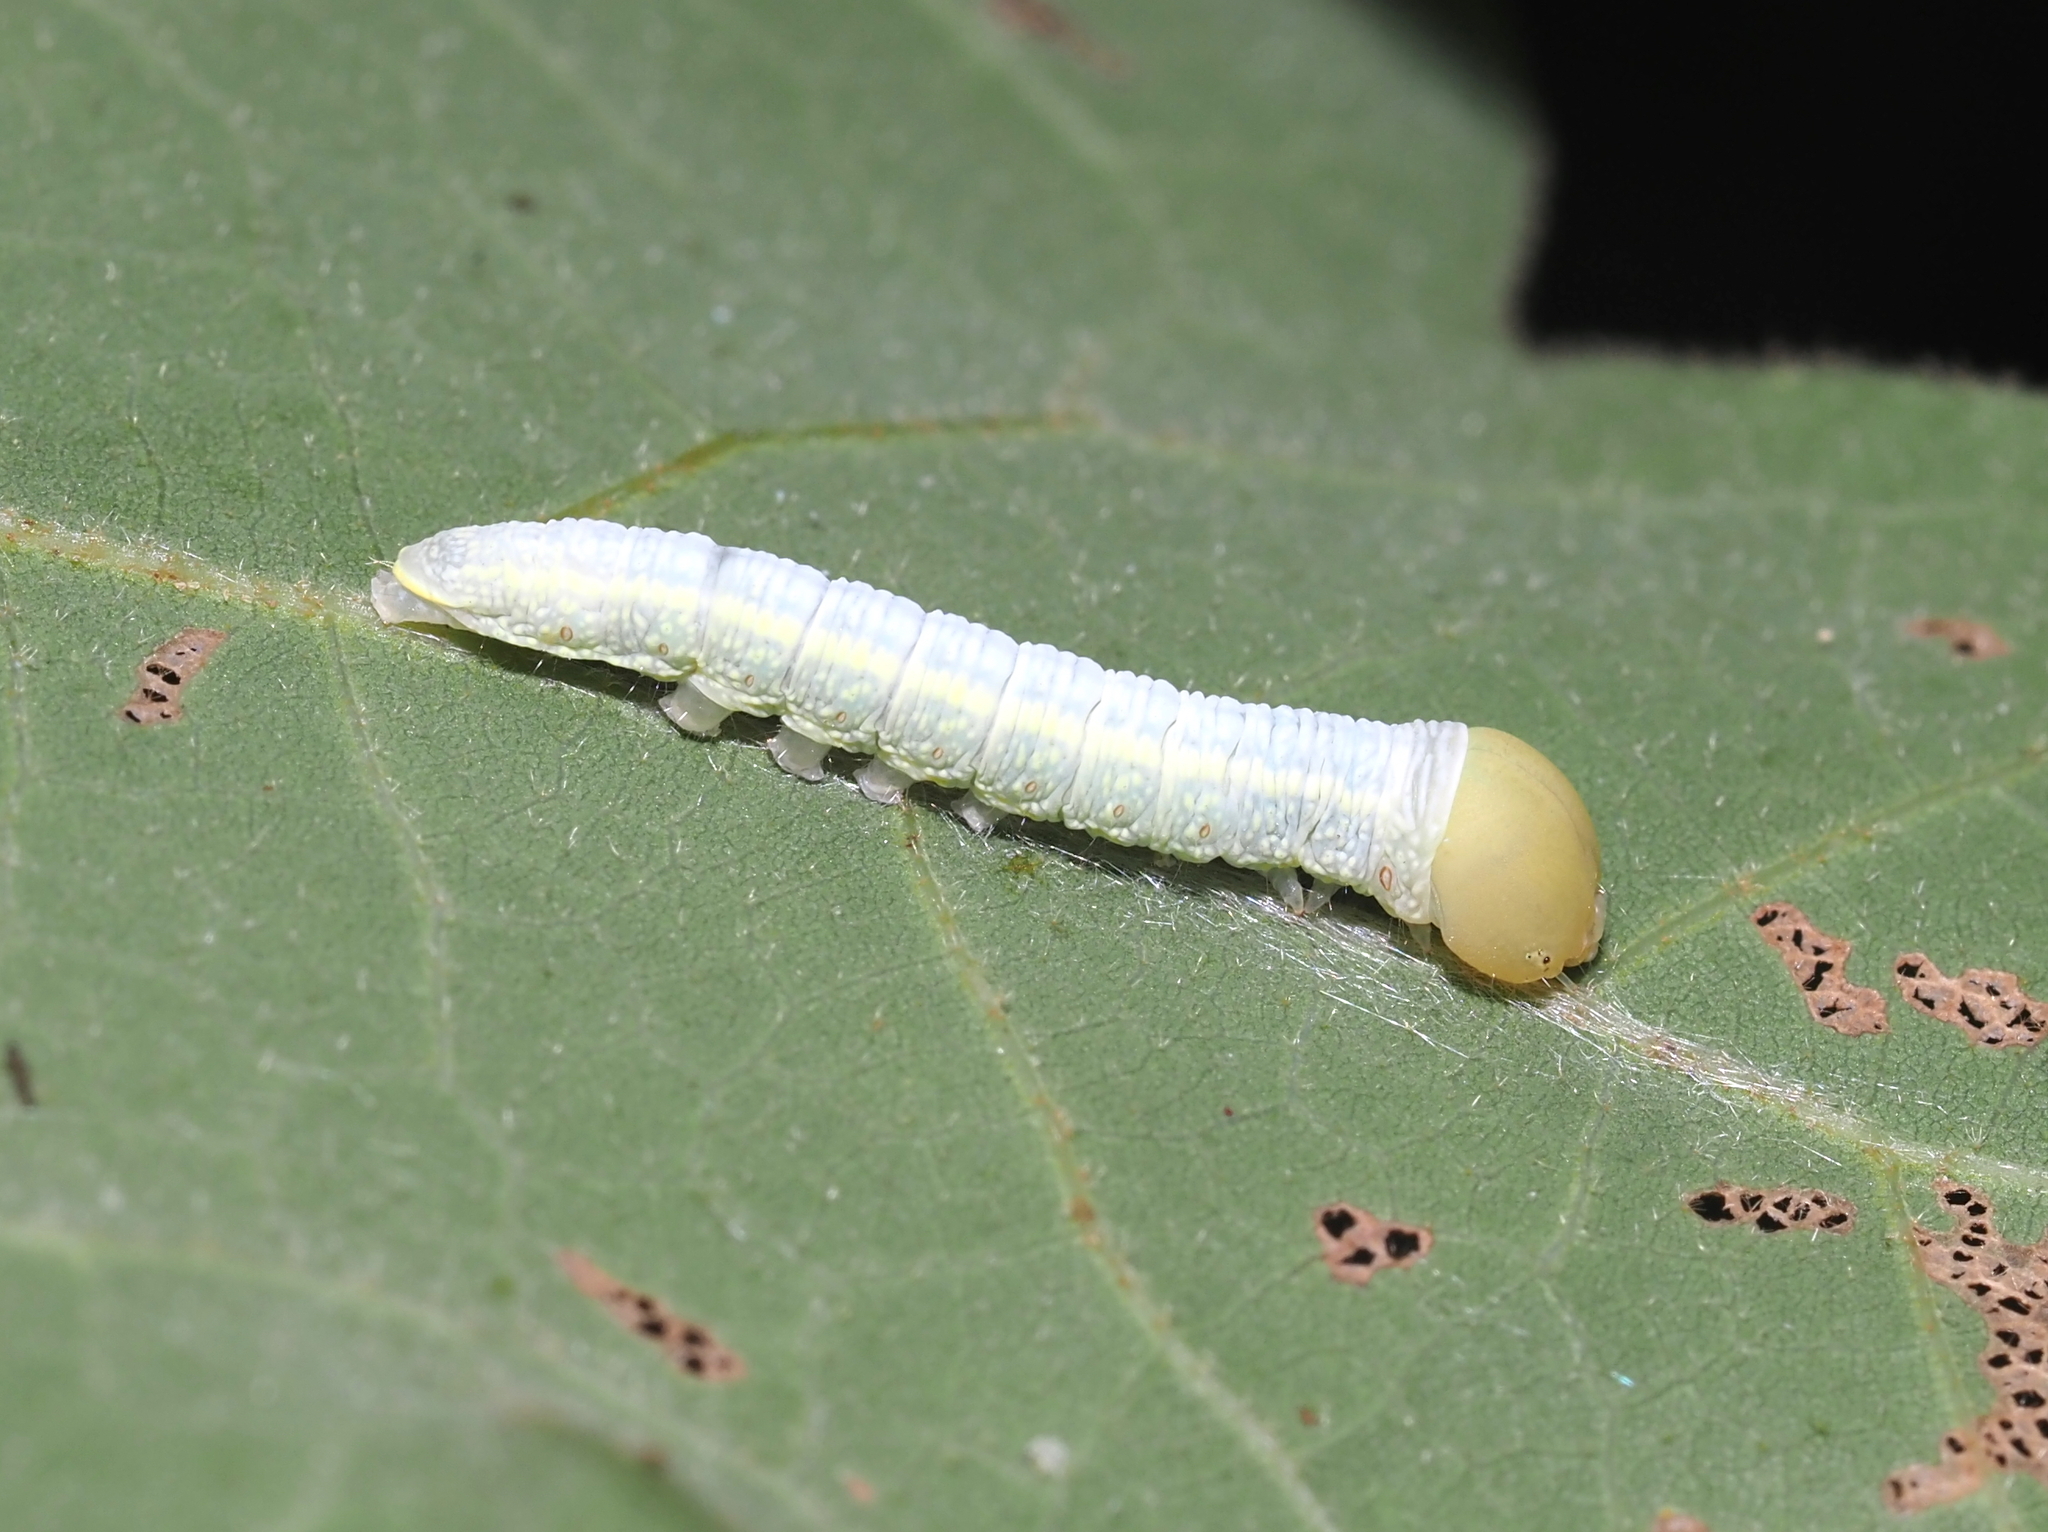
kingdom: Animalia
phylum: Arthropoda
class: Insecta
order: Lepidoptera
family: Notodontidae
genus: Nadata
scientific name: Nadata gibbosa
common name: White-dotted prominent
